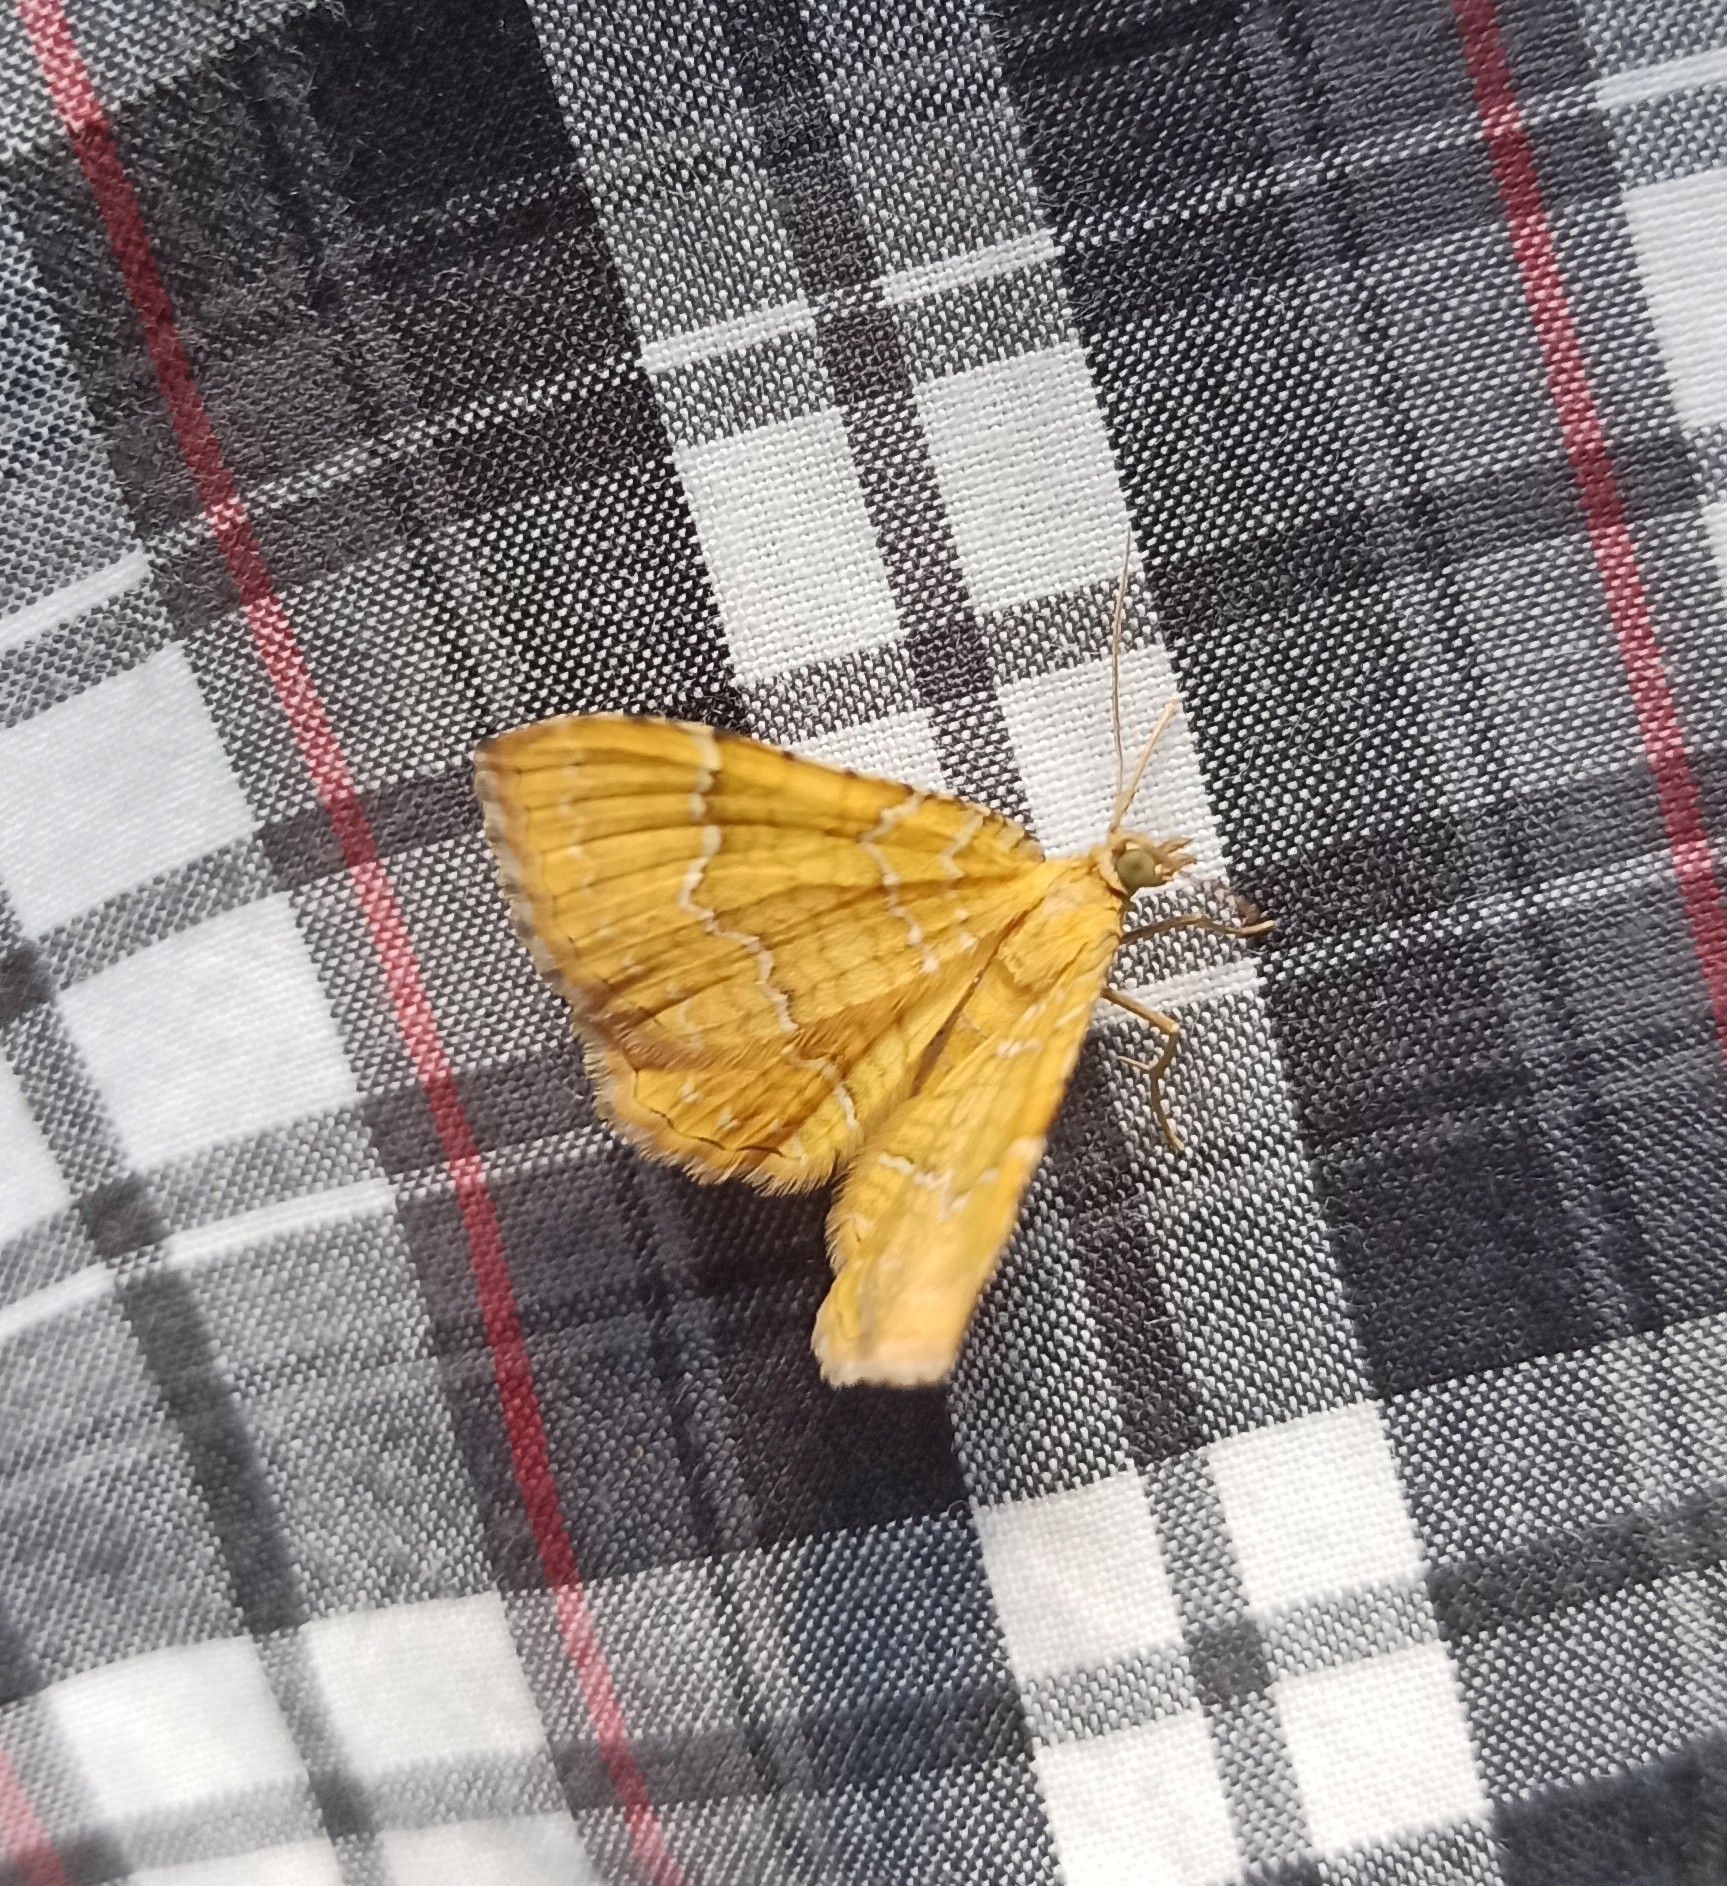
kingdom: Animalia
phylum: Arthropoda
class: Insecta
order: Lepidoptera
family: Geometridae
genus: Camptogramma
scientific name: Camptogramma bilineata
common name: Yellow shell
